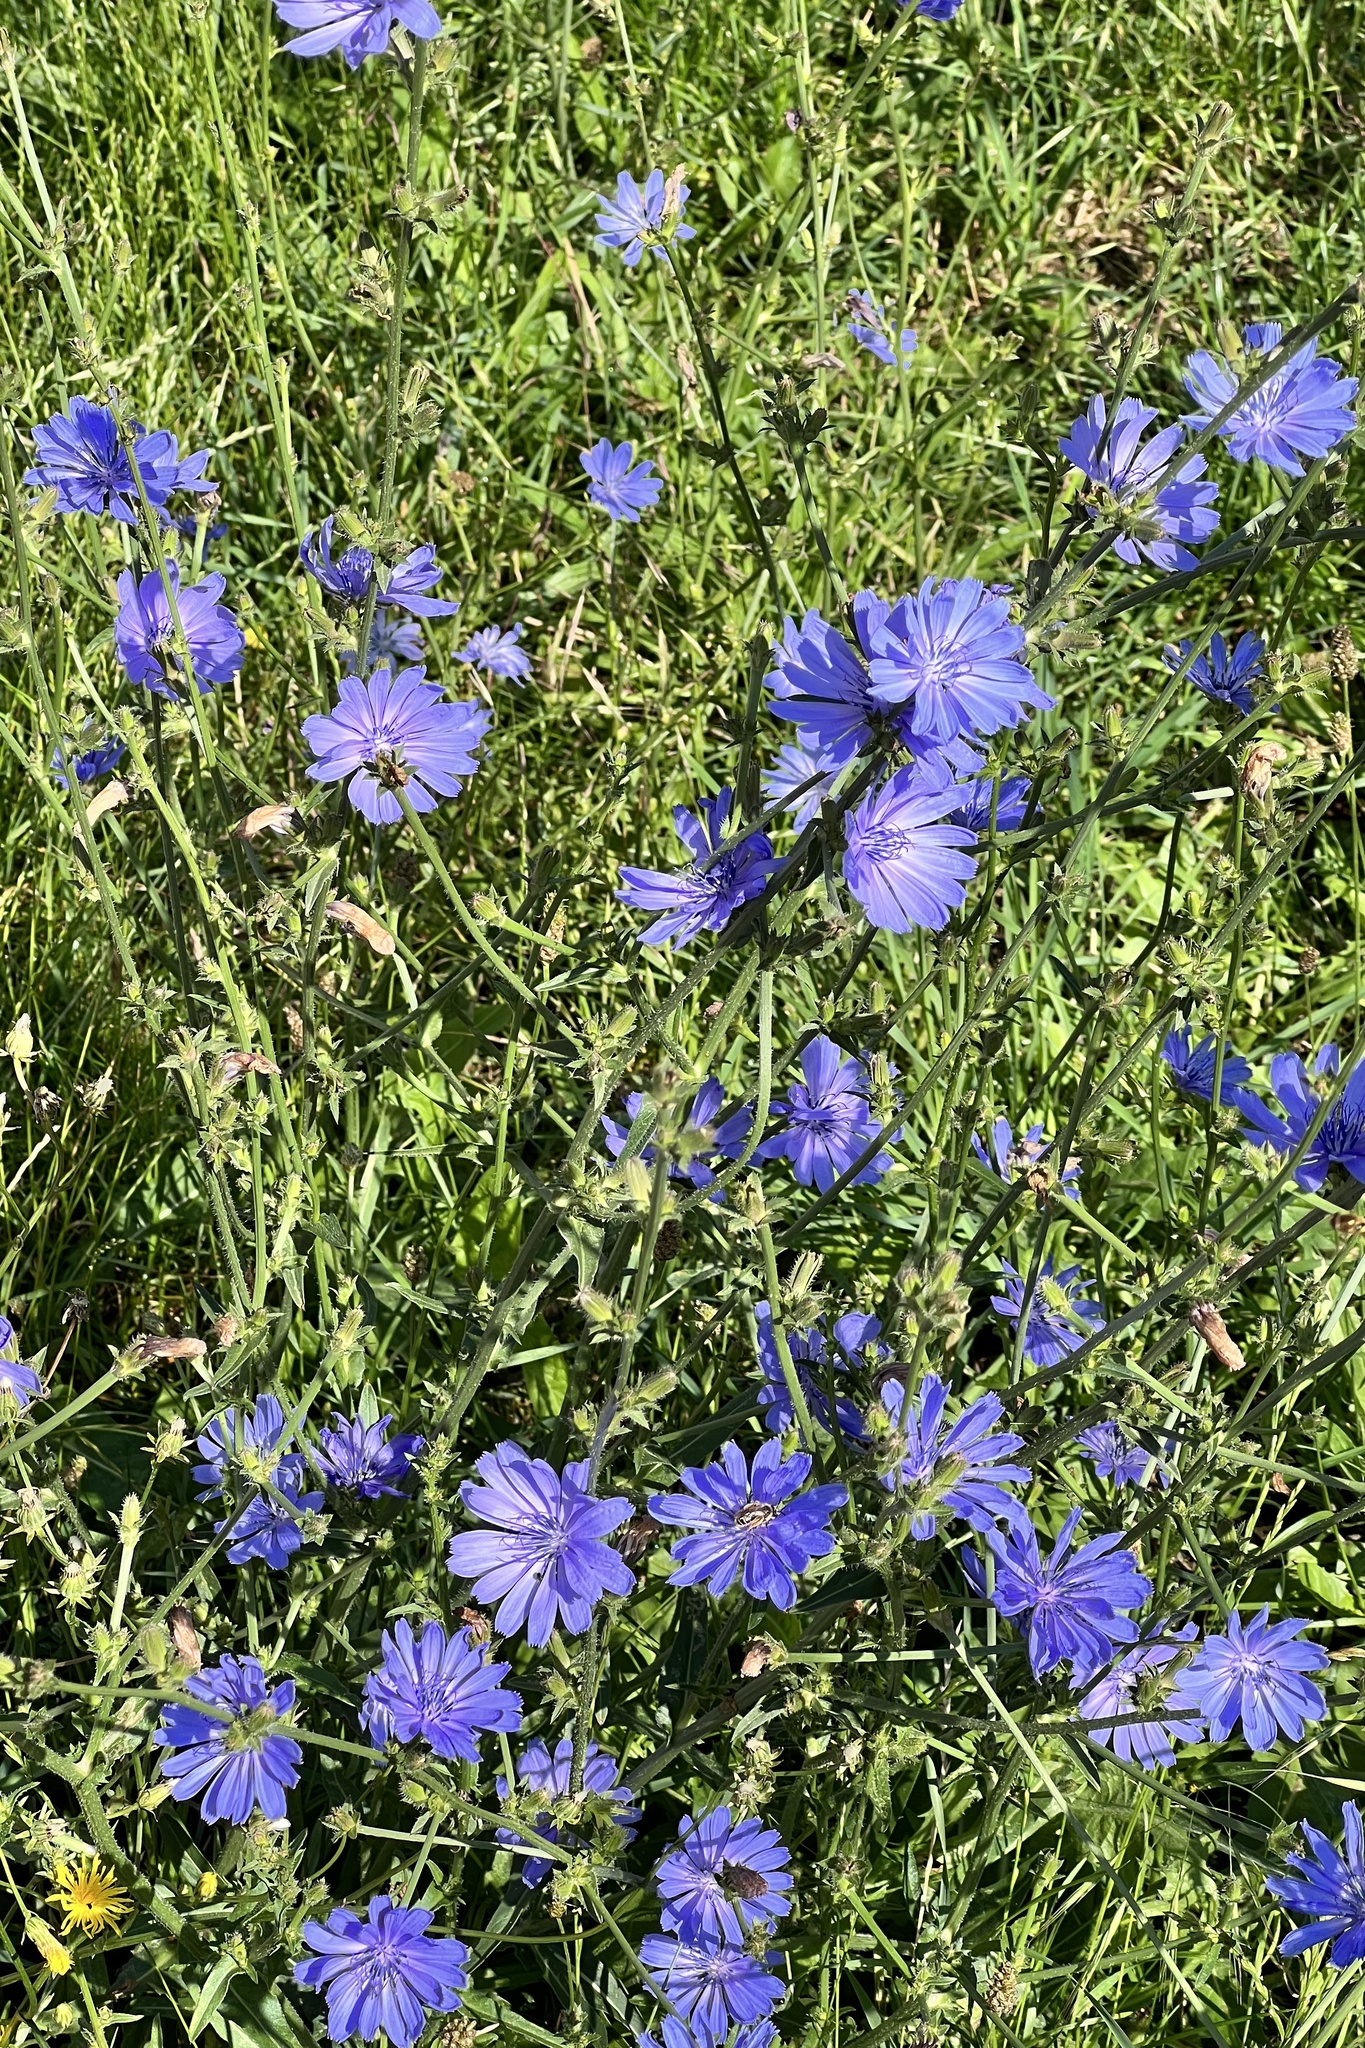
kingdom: Plantae
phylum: Tracheophyta
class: Magnoliopsida
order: Asterales
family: Asteraceae
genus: Cichorium
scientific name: Cichorium intybus
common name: Chicory
